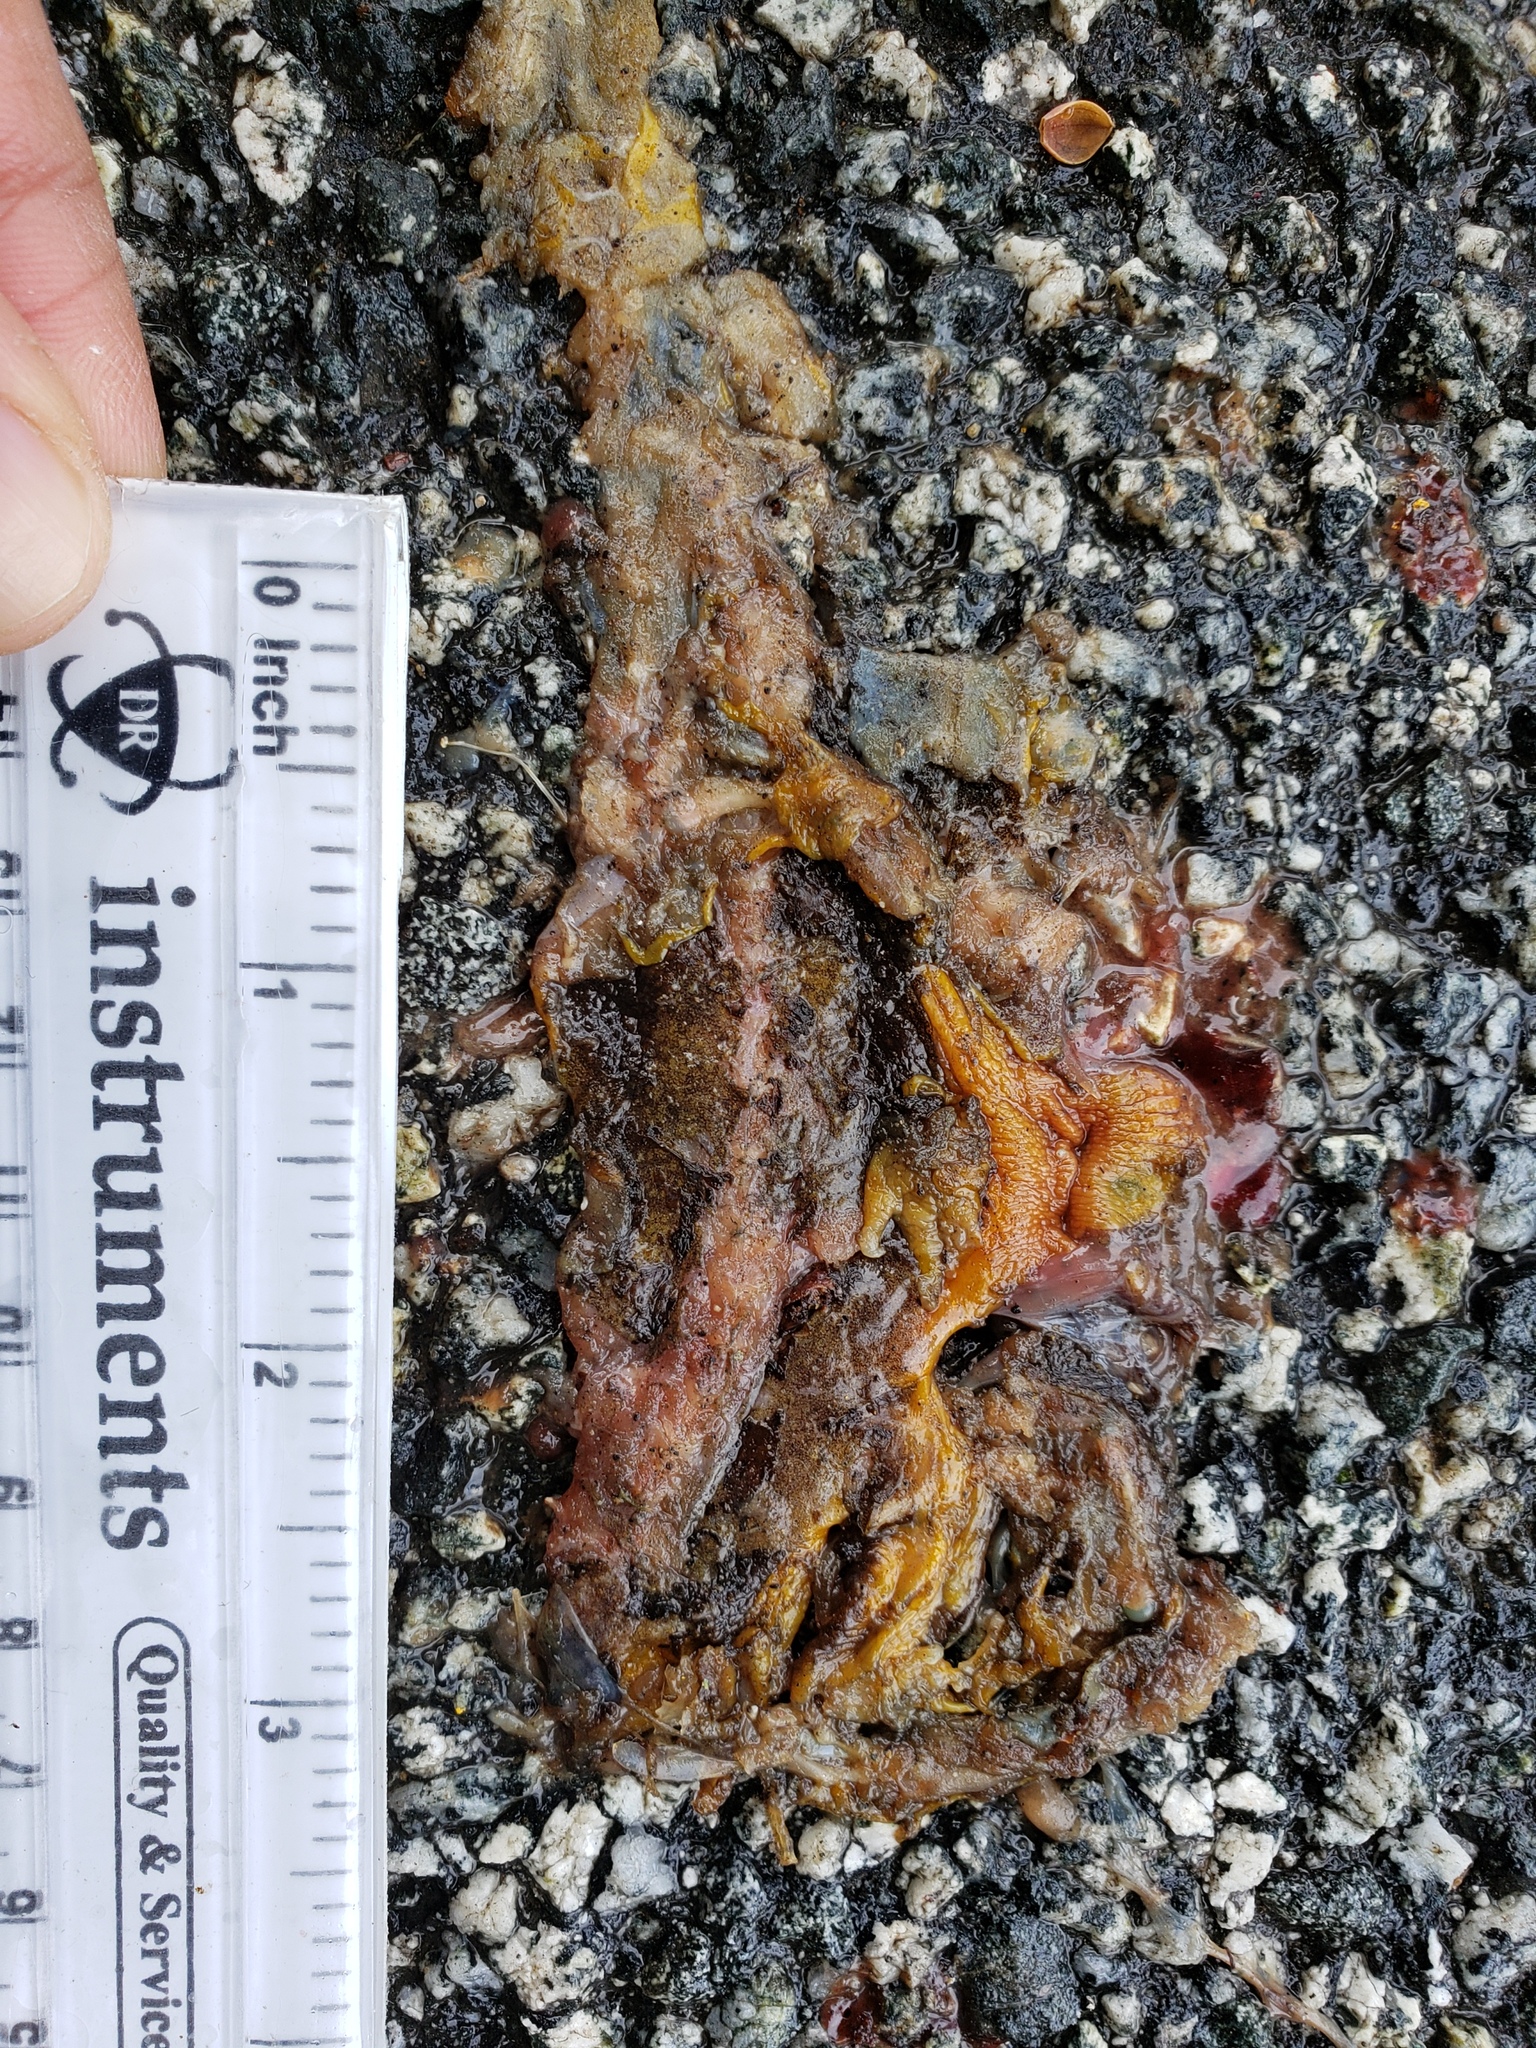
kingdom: Animalia
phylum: Chordata
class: Amphibia
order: Caudata
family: Salamandridae
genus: Taricha
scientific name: Taricha
